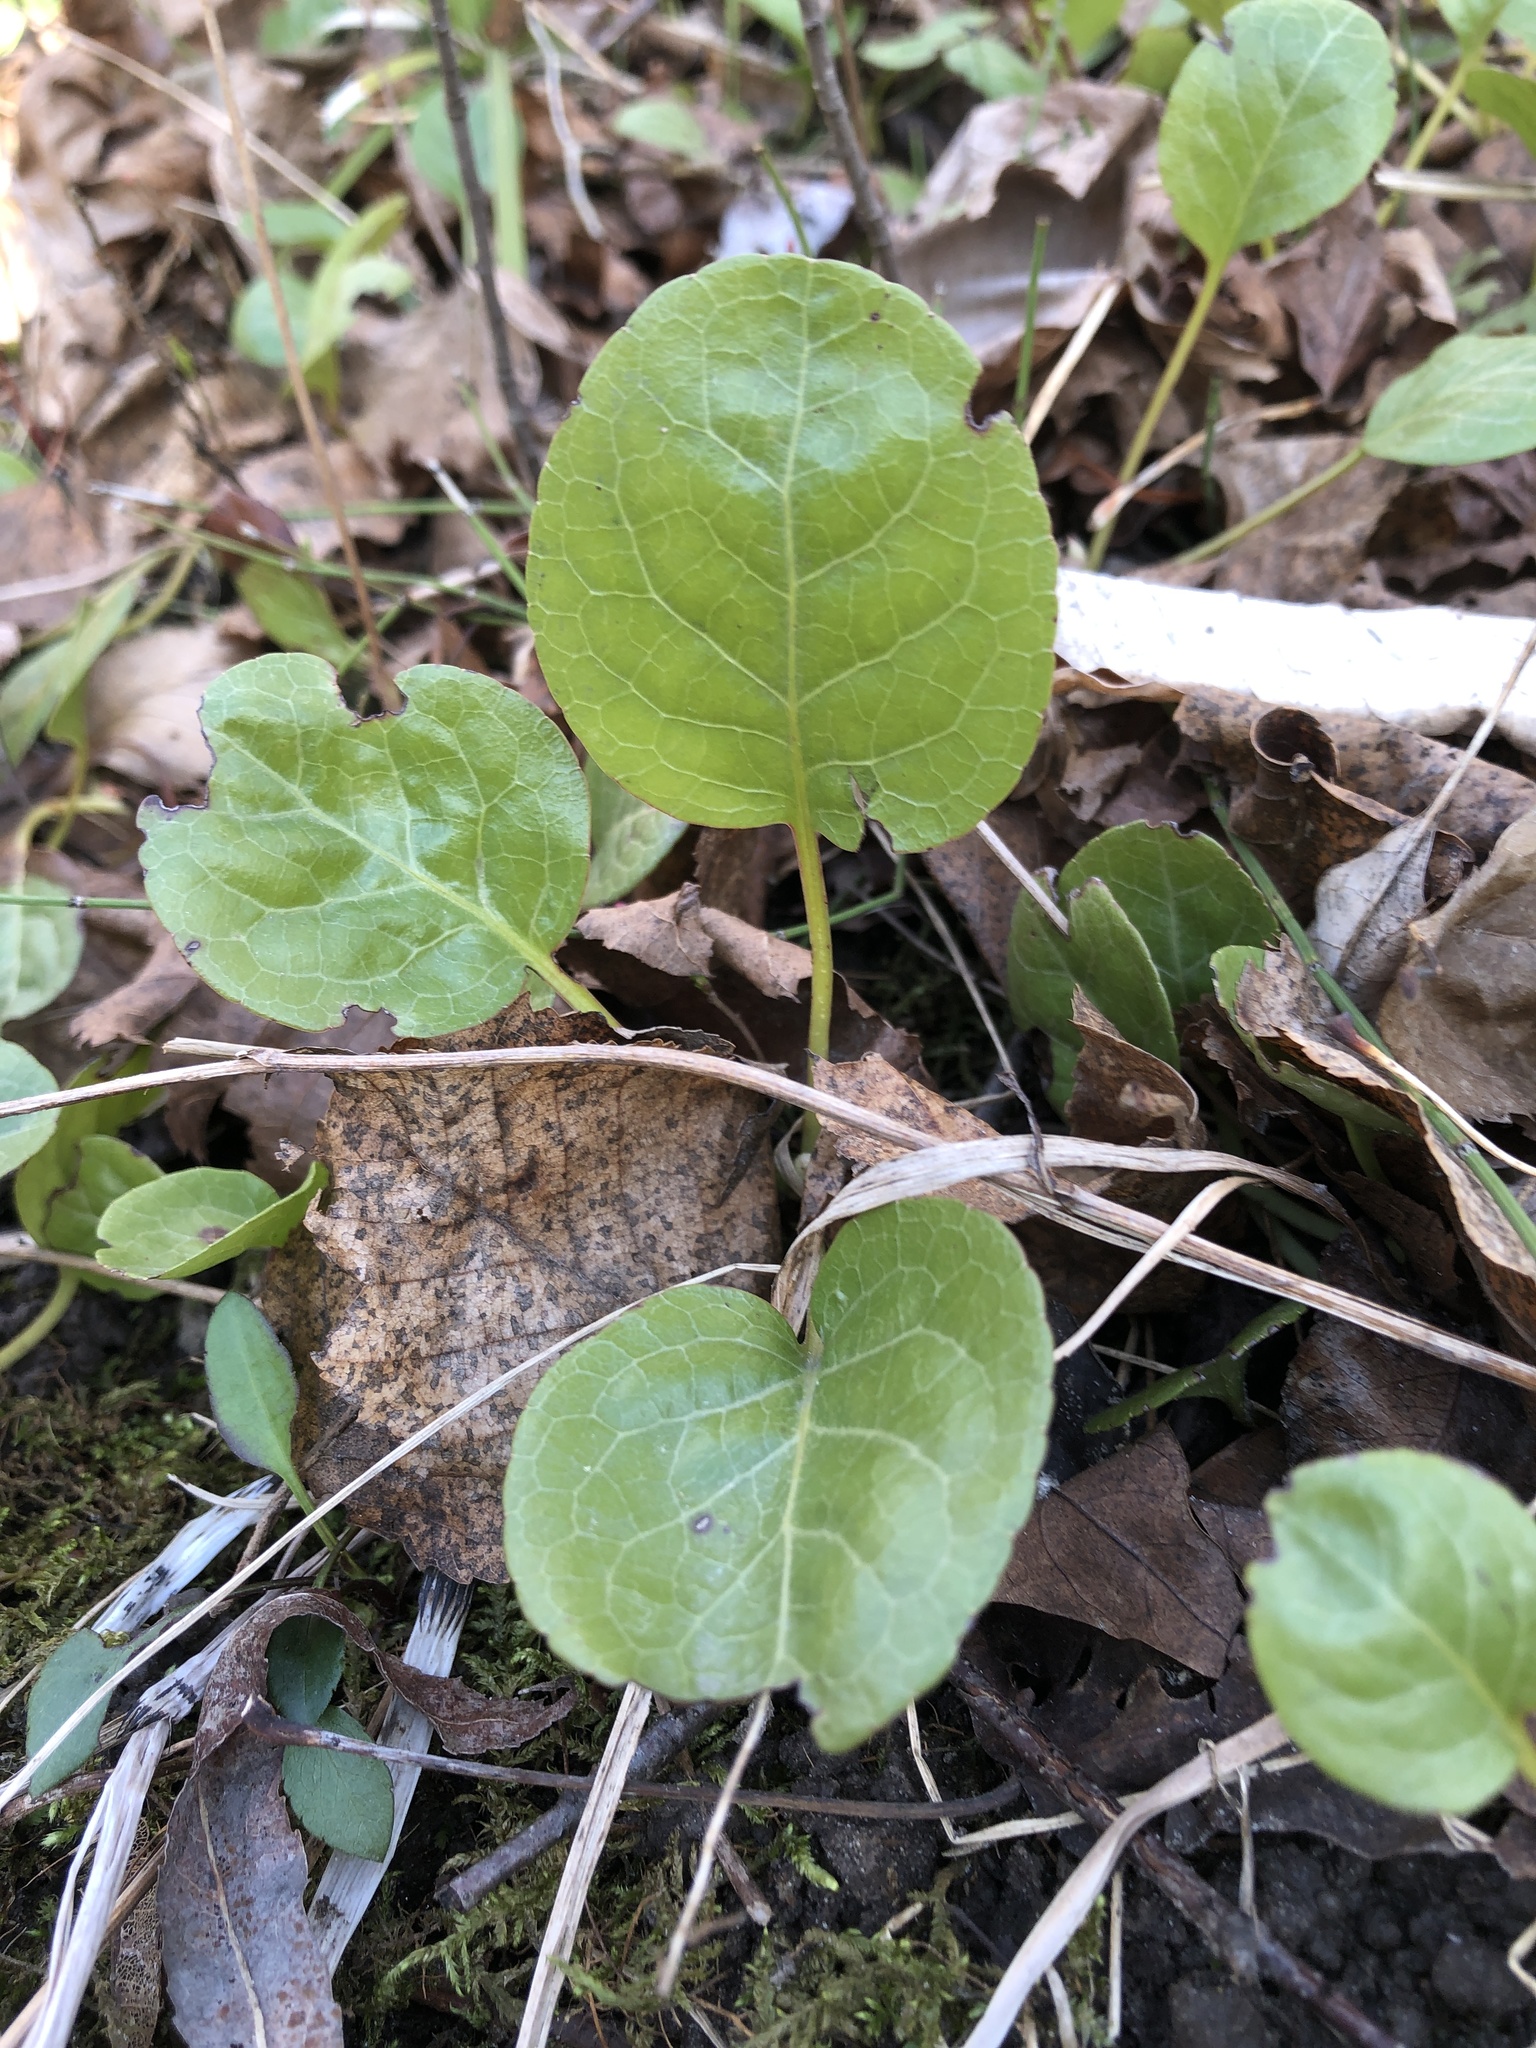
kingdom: Plantae
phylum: Tracheophyta
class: Magnoliopsida
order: Ericales
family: Ericaceae
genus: Pyrola
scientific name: Pyrola americana
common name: American wintergreen
